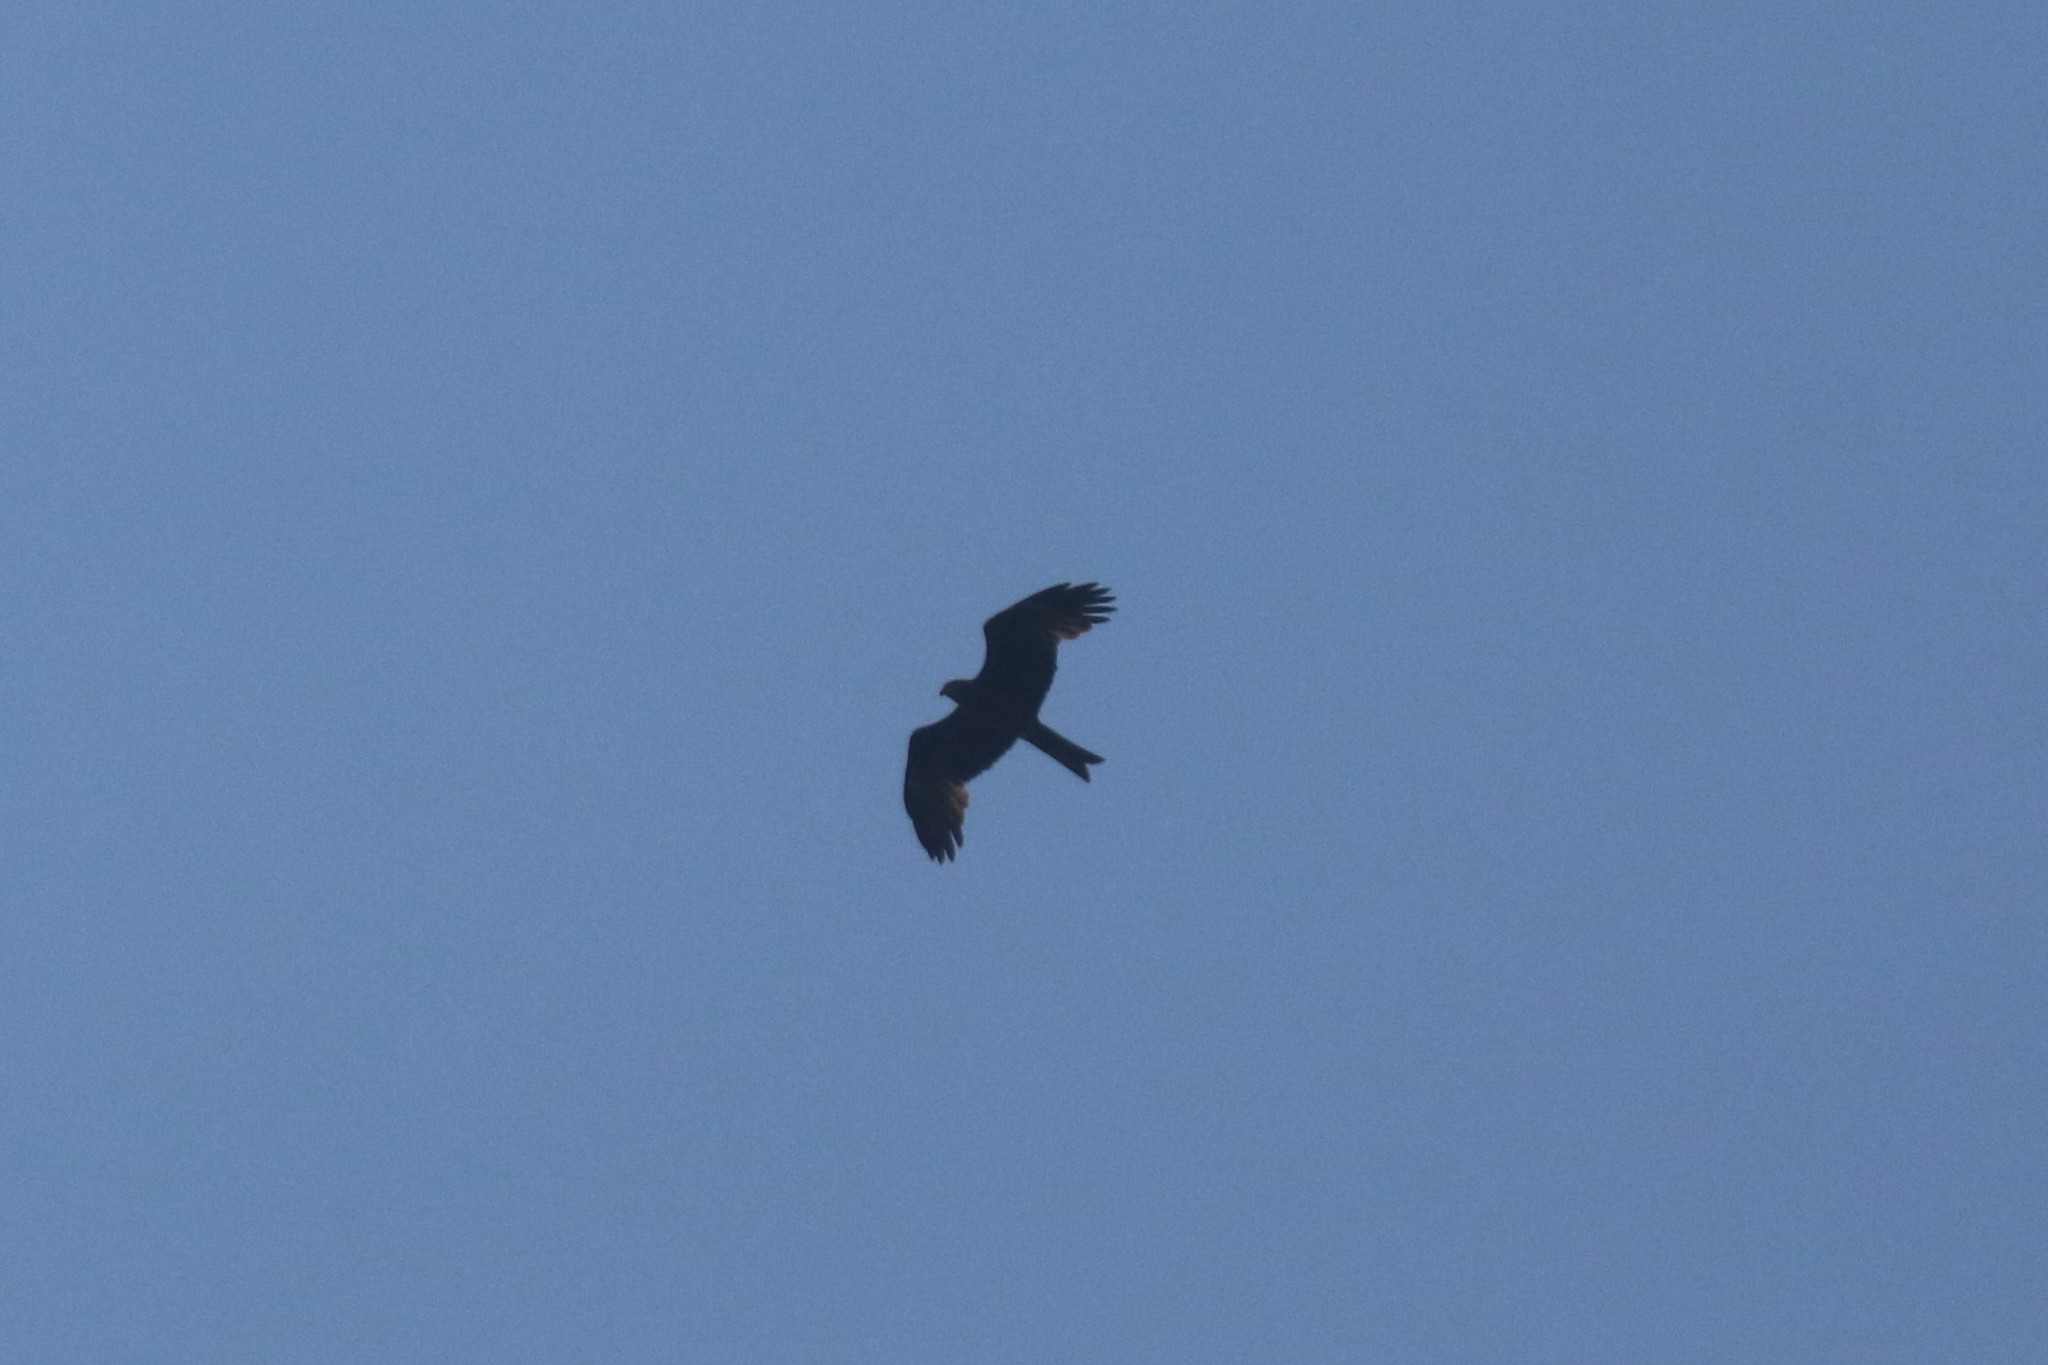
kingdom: Animalia
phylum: Chordata
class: Aves
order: Accipitriformes
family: Accipitridae
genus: Milvus
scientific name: Milvus migrans
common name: Black kite
